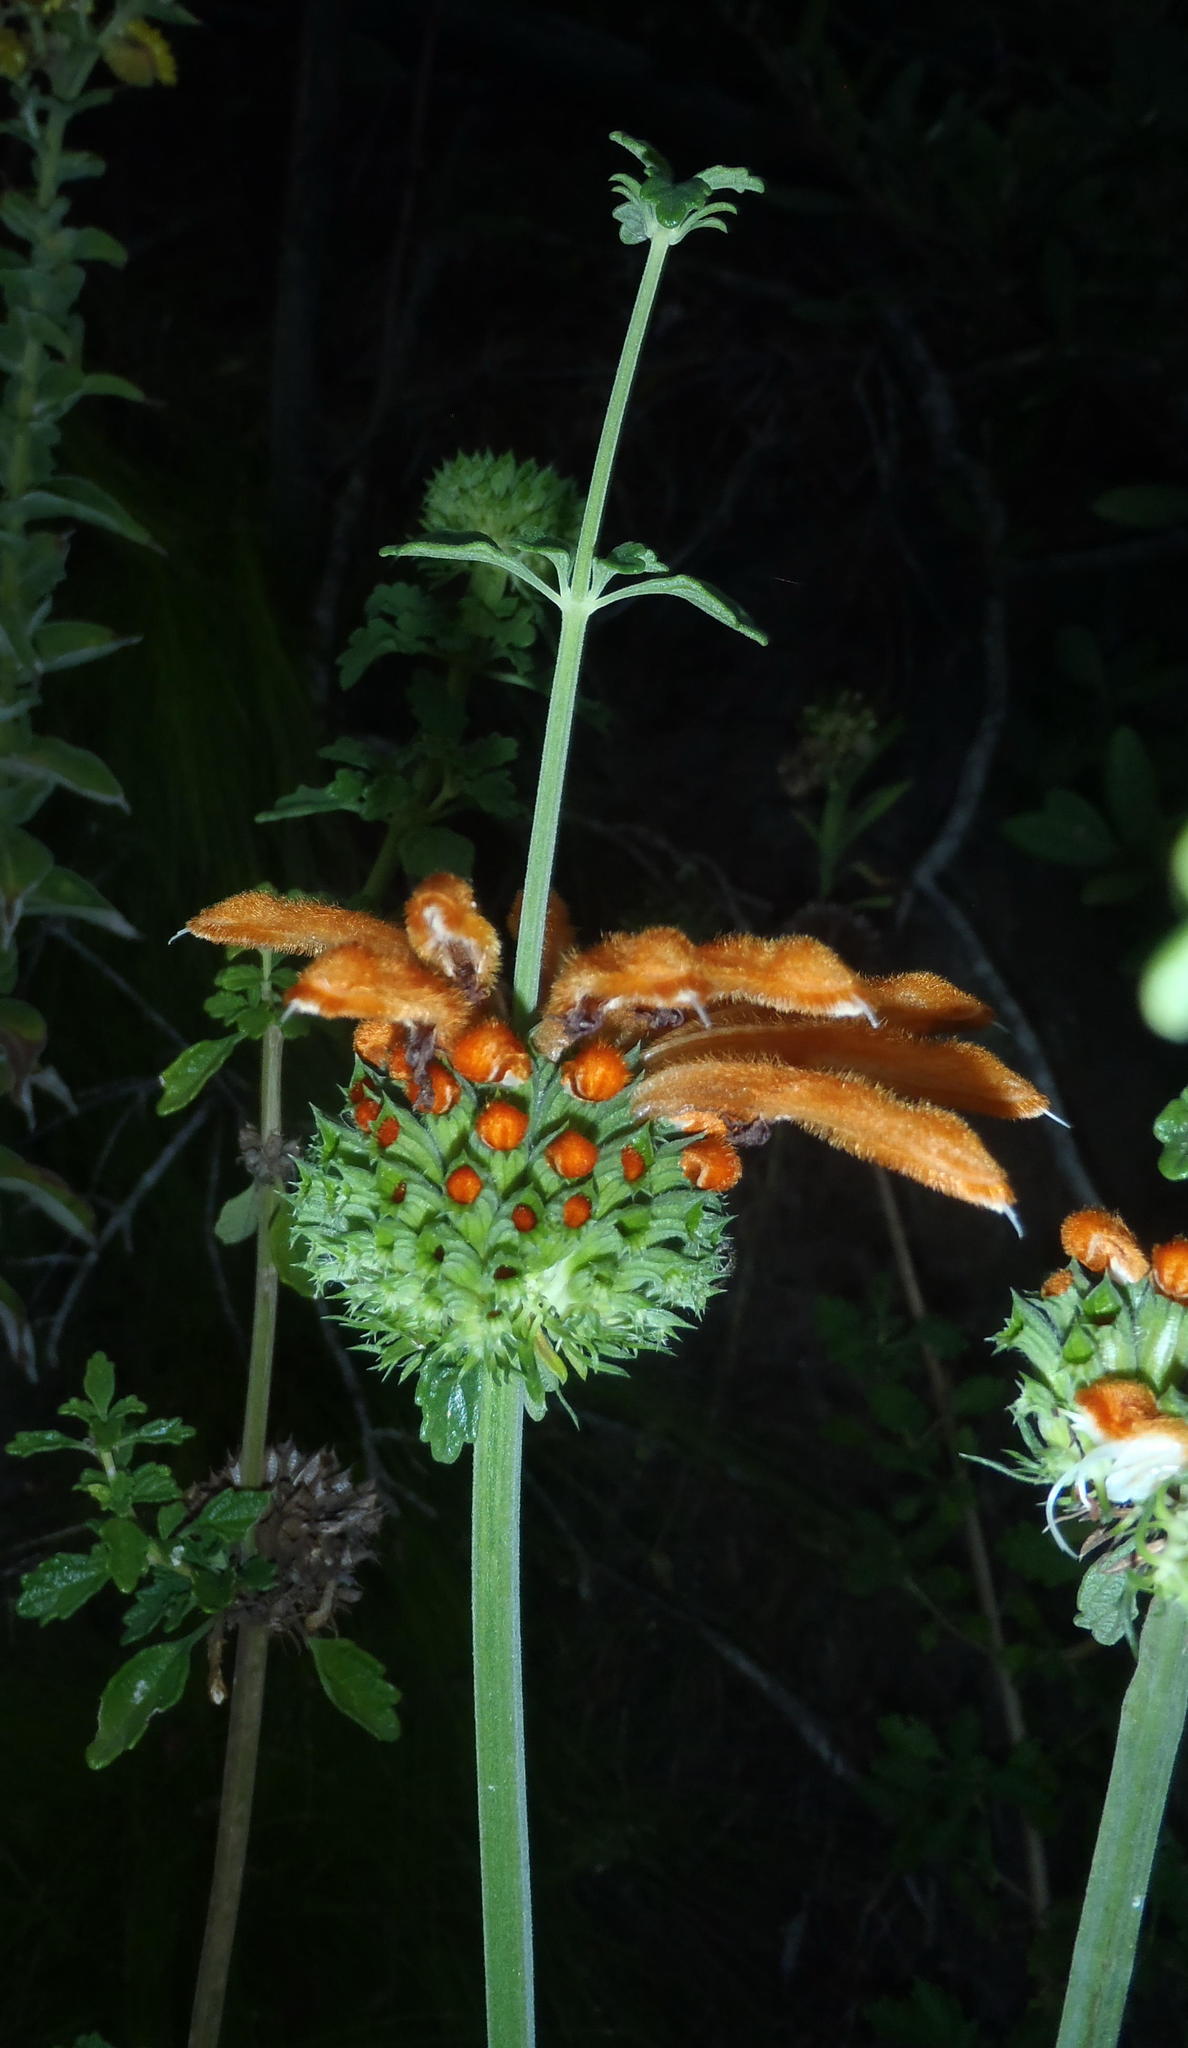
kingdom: Plantae
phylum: Tracheophyta
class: Magnoliopsida
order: Lamiales
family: Lamiaceae
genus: Leonotis
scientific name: Leonotis ocymifolia
